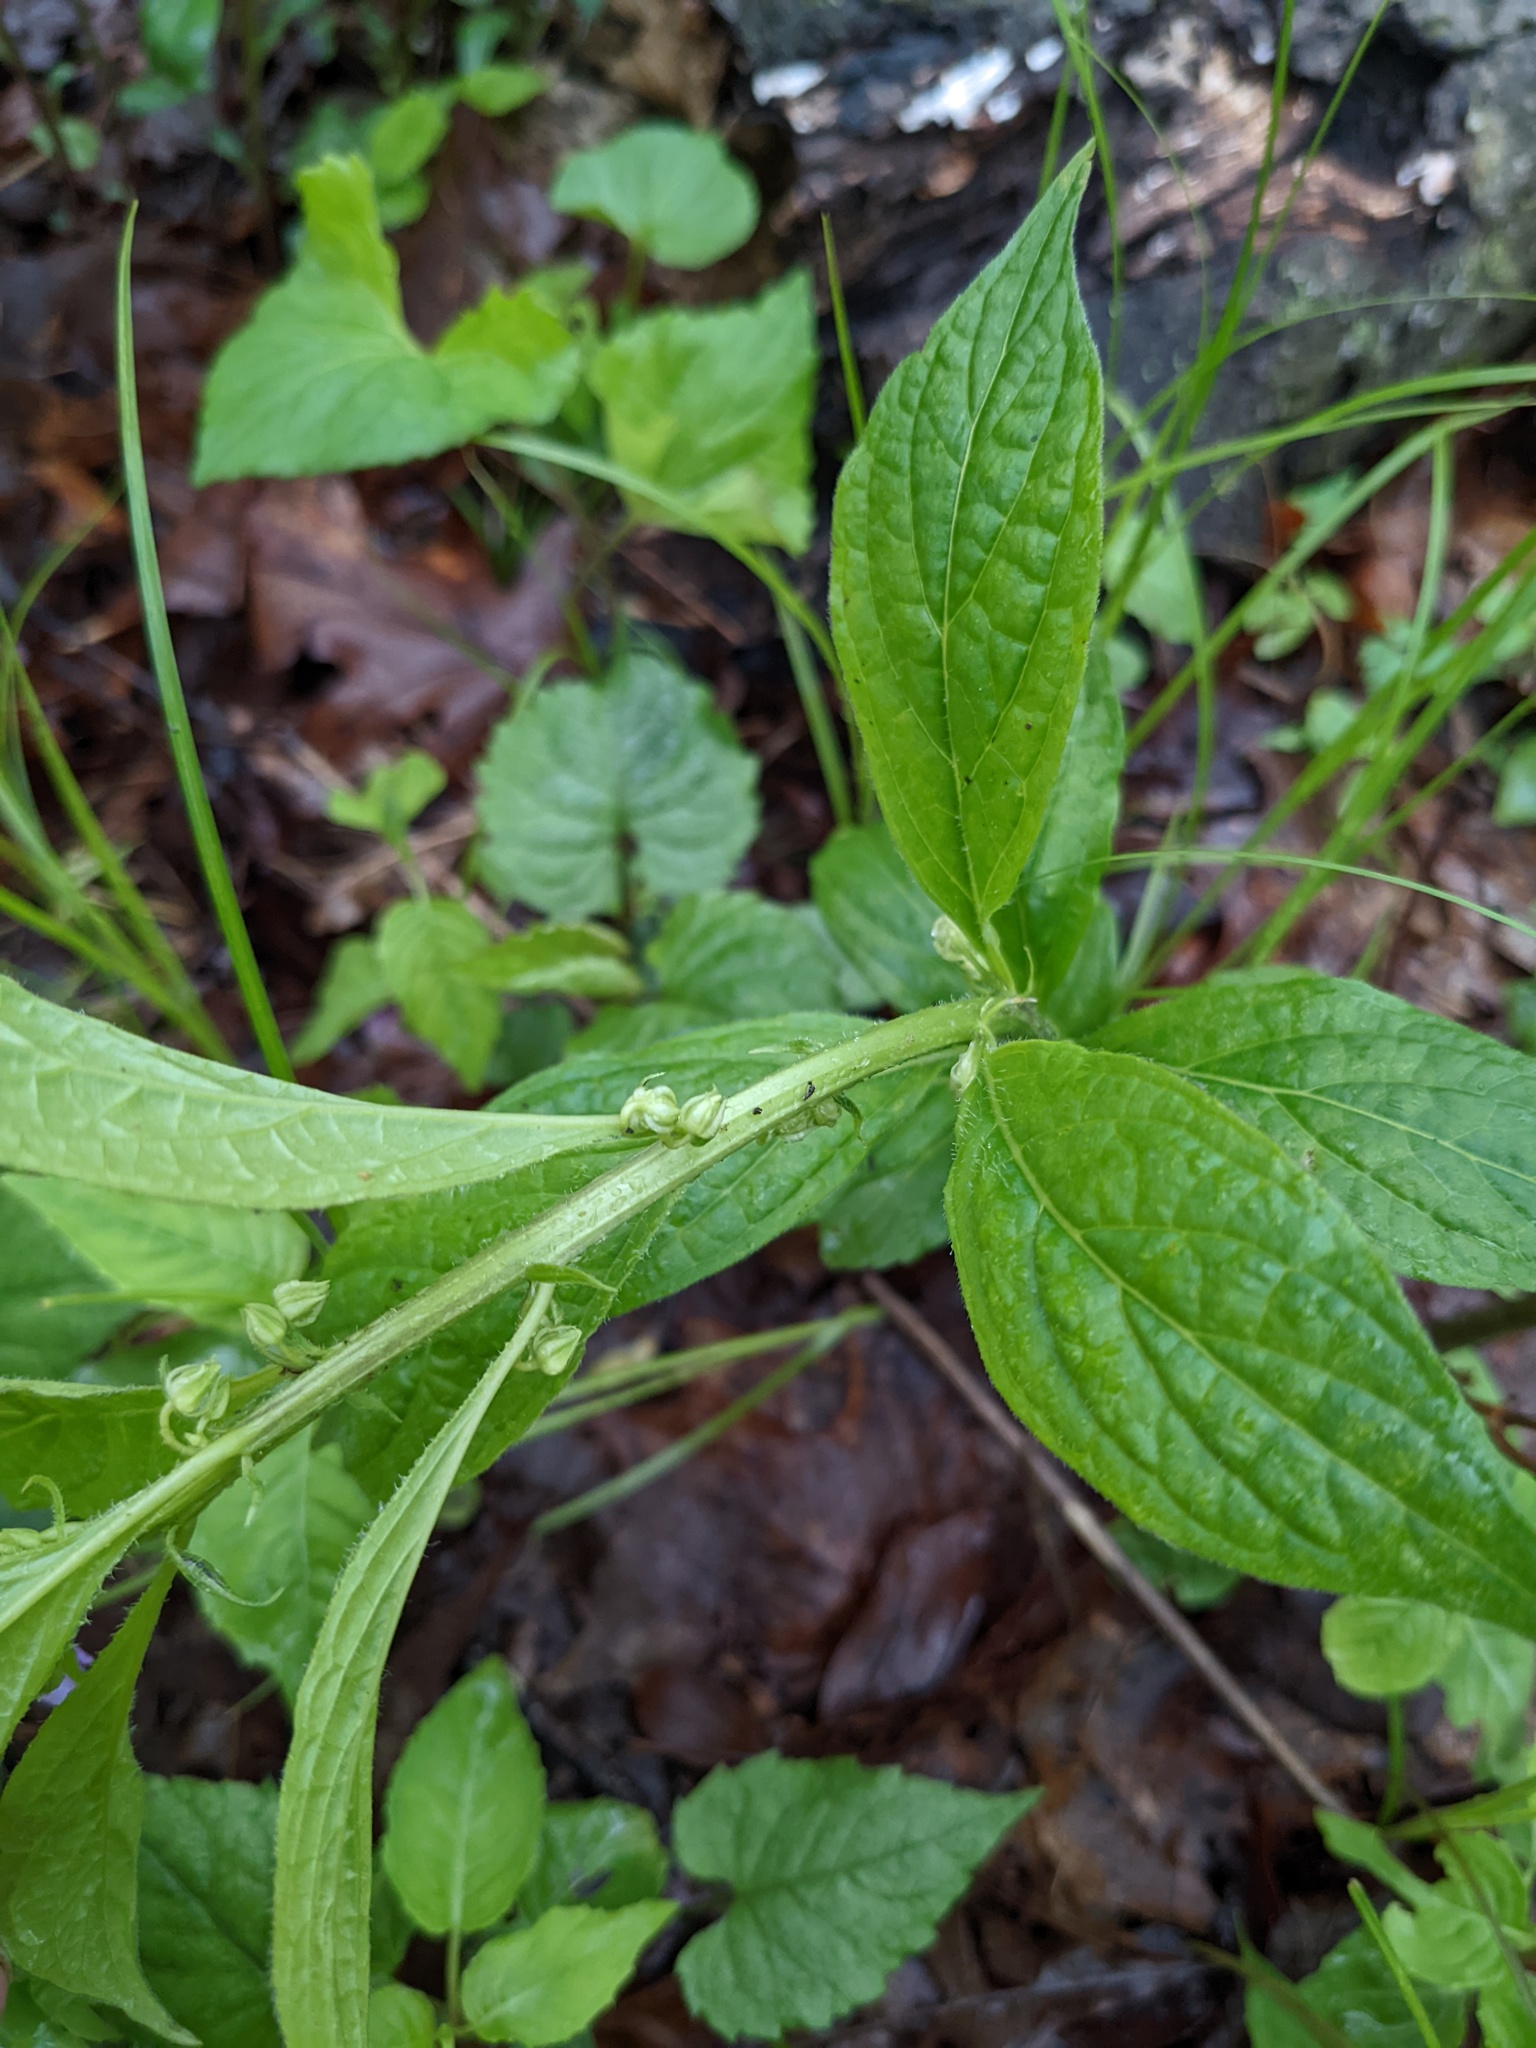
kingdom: Plantae
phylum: Tracheophyta
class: Magnoliopsida
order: Malpighiales
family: Violaceae
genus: Cubelium
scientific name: Cubelium concolor
